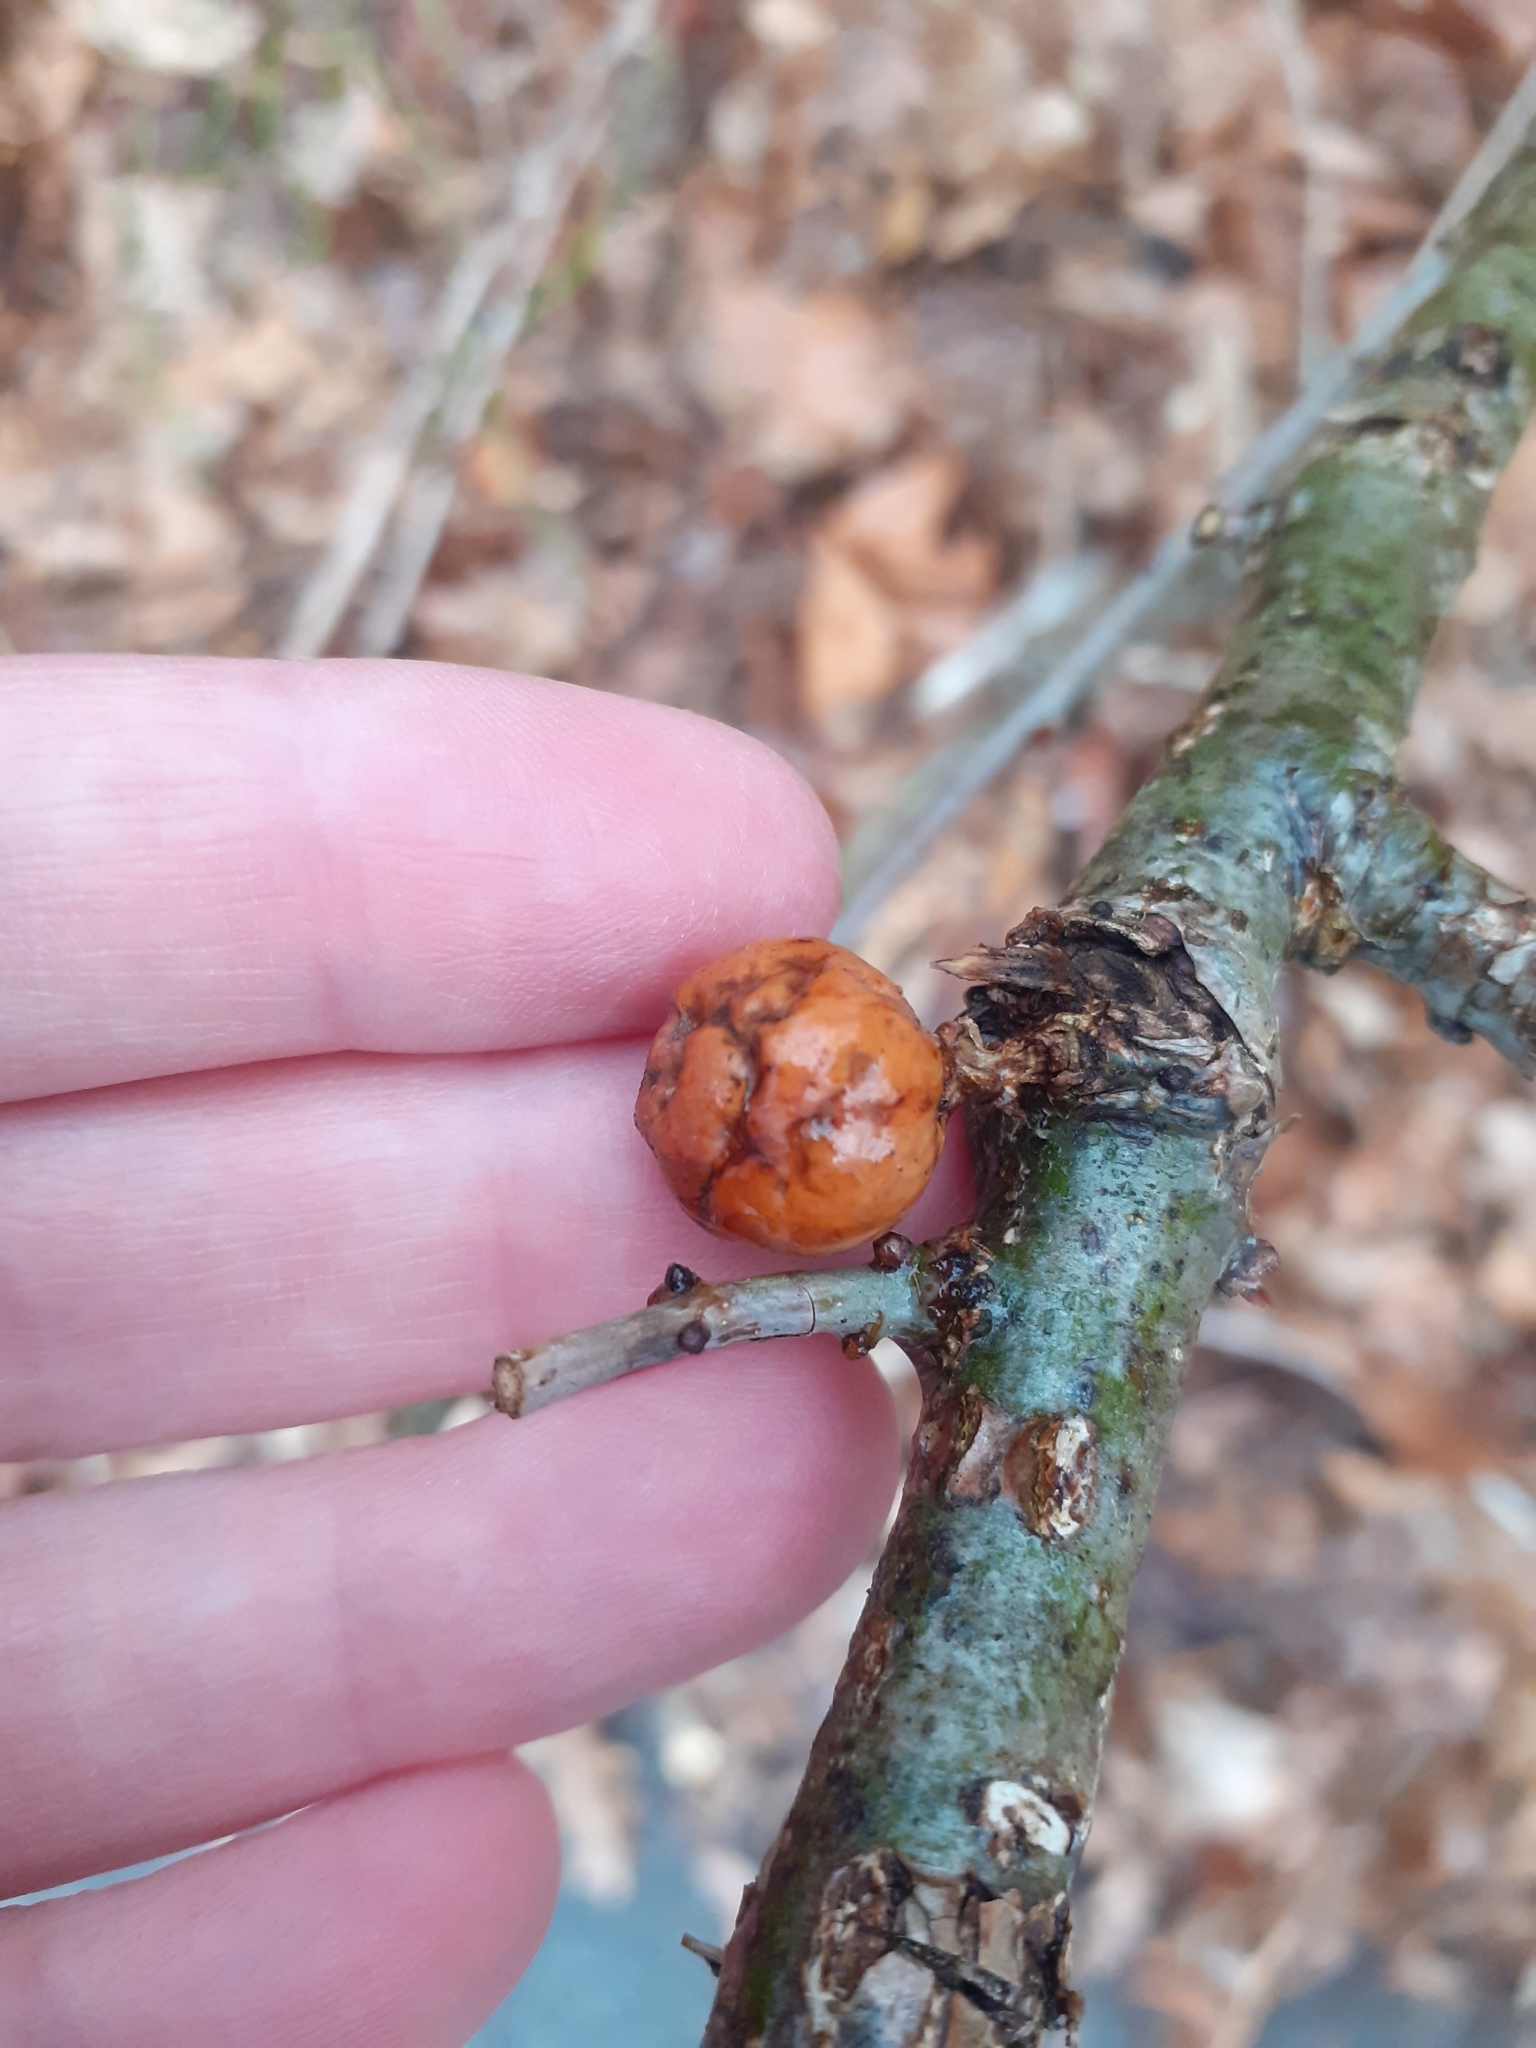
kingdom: Animalia
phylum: Arthropoda
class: Insecta
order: Hymenoptera
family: Cynipidae
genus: Andricus
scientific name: Andricus kollari
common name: Marble gall
